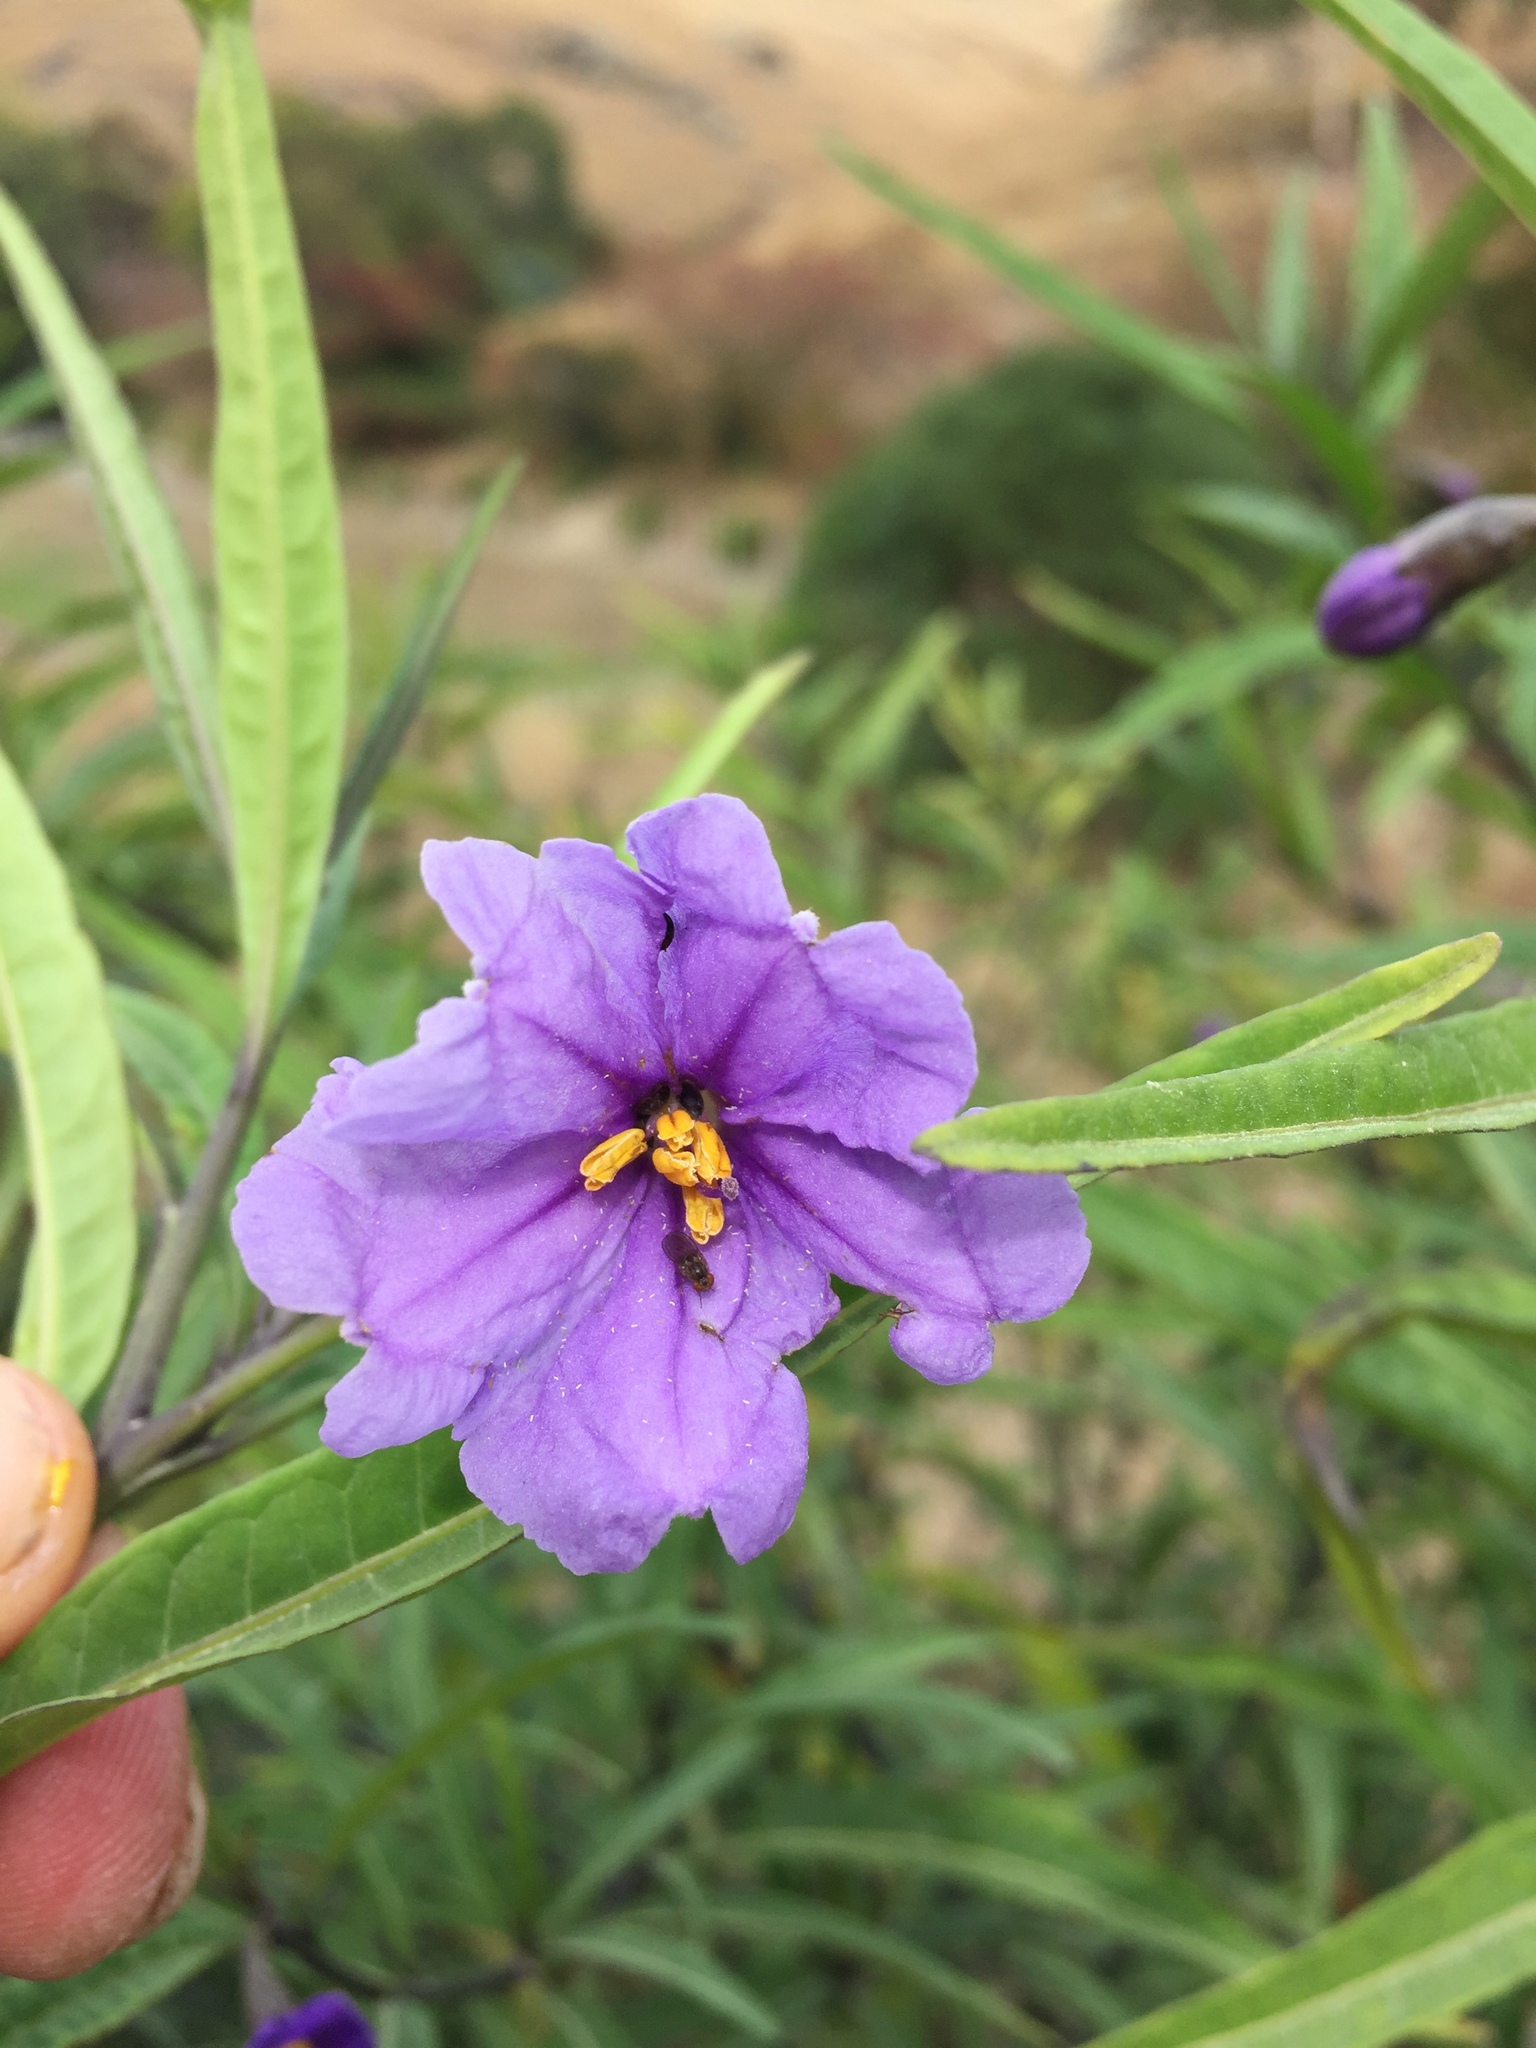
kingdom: Plantae
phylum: Tracheophyta
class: Magnoliopsida
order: Solanales
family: Solanaceae
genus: Solanum
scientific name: Solanum laciniatum
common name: Kangaroo-apple
